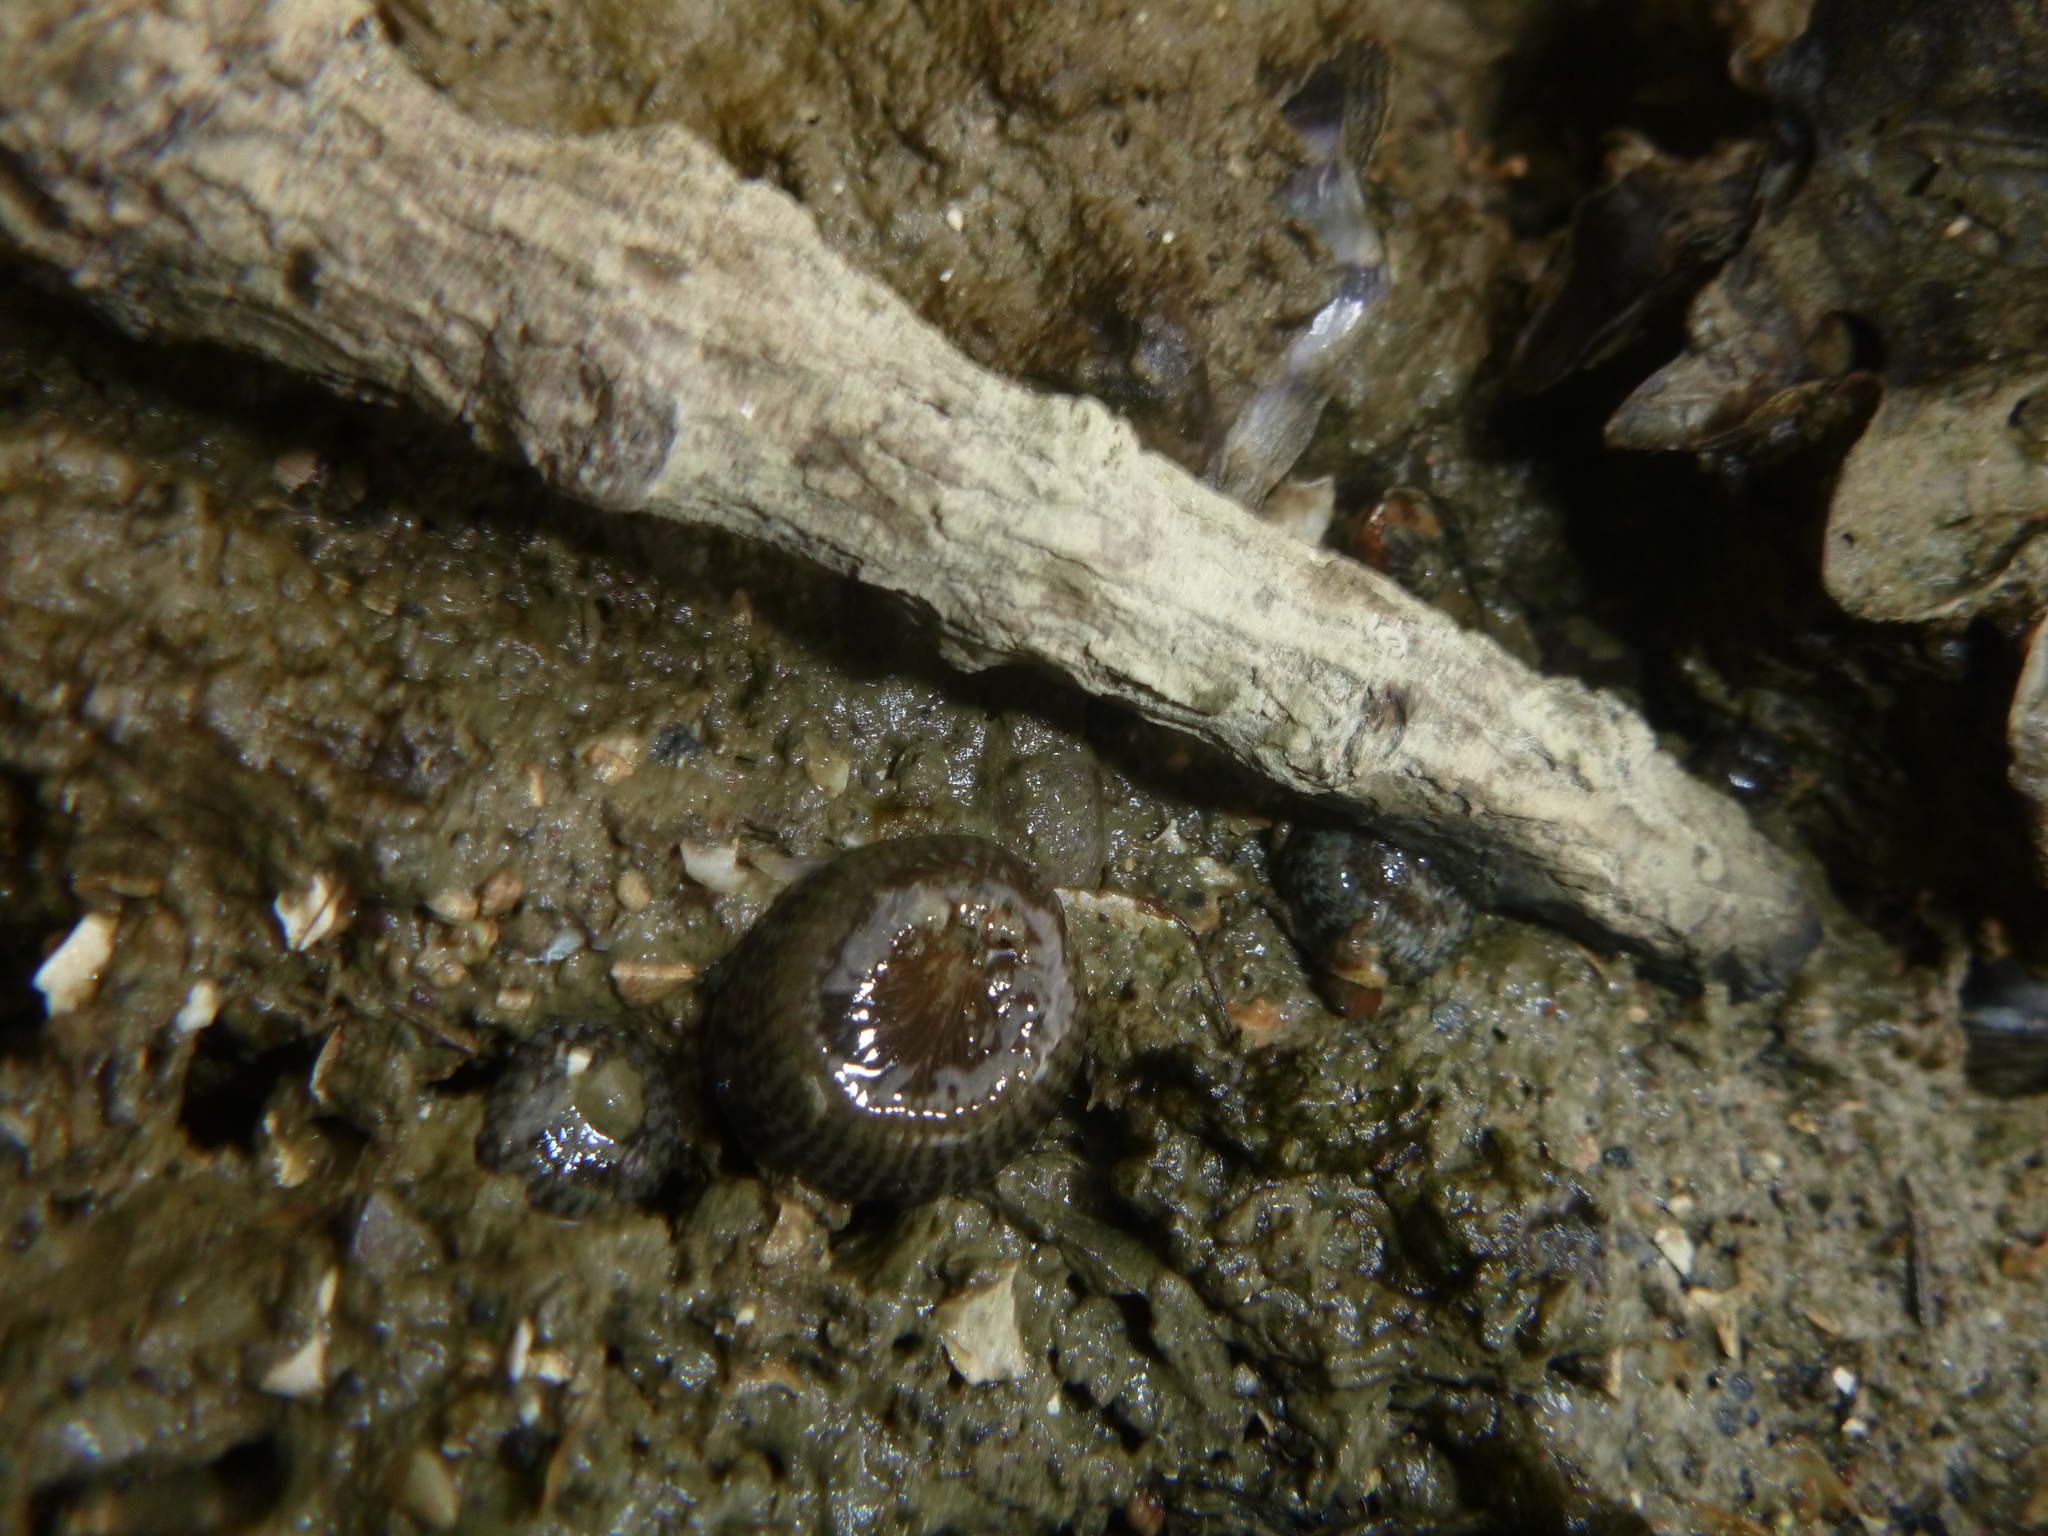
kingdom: Animalia
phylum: Cnidaria
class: Anthozoa
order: Actiniaria
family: Actiniidae
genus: Anthopleura
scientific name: Anthopleura hermaphroditica
